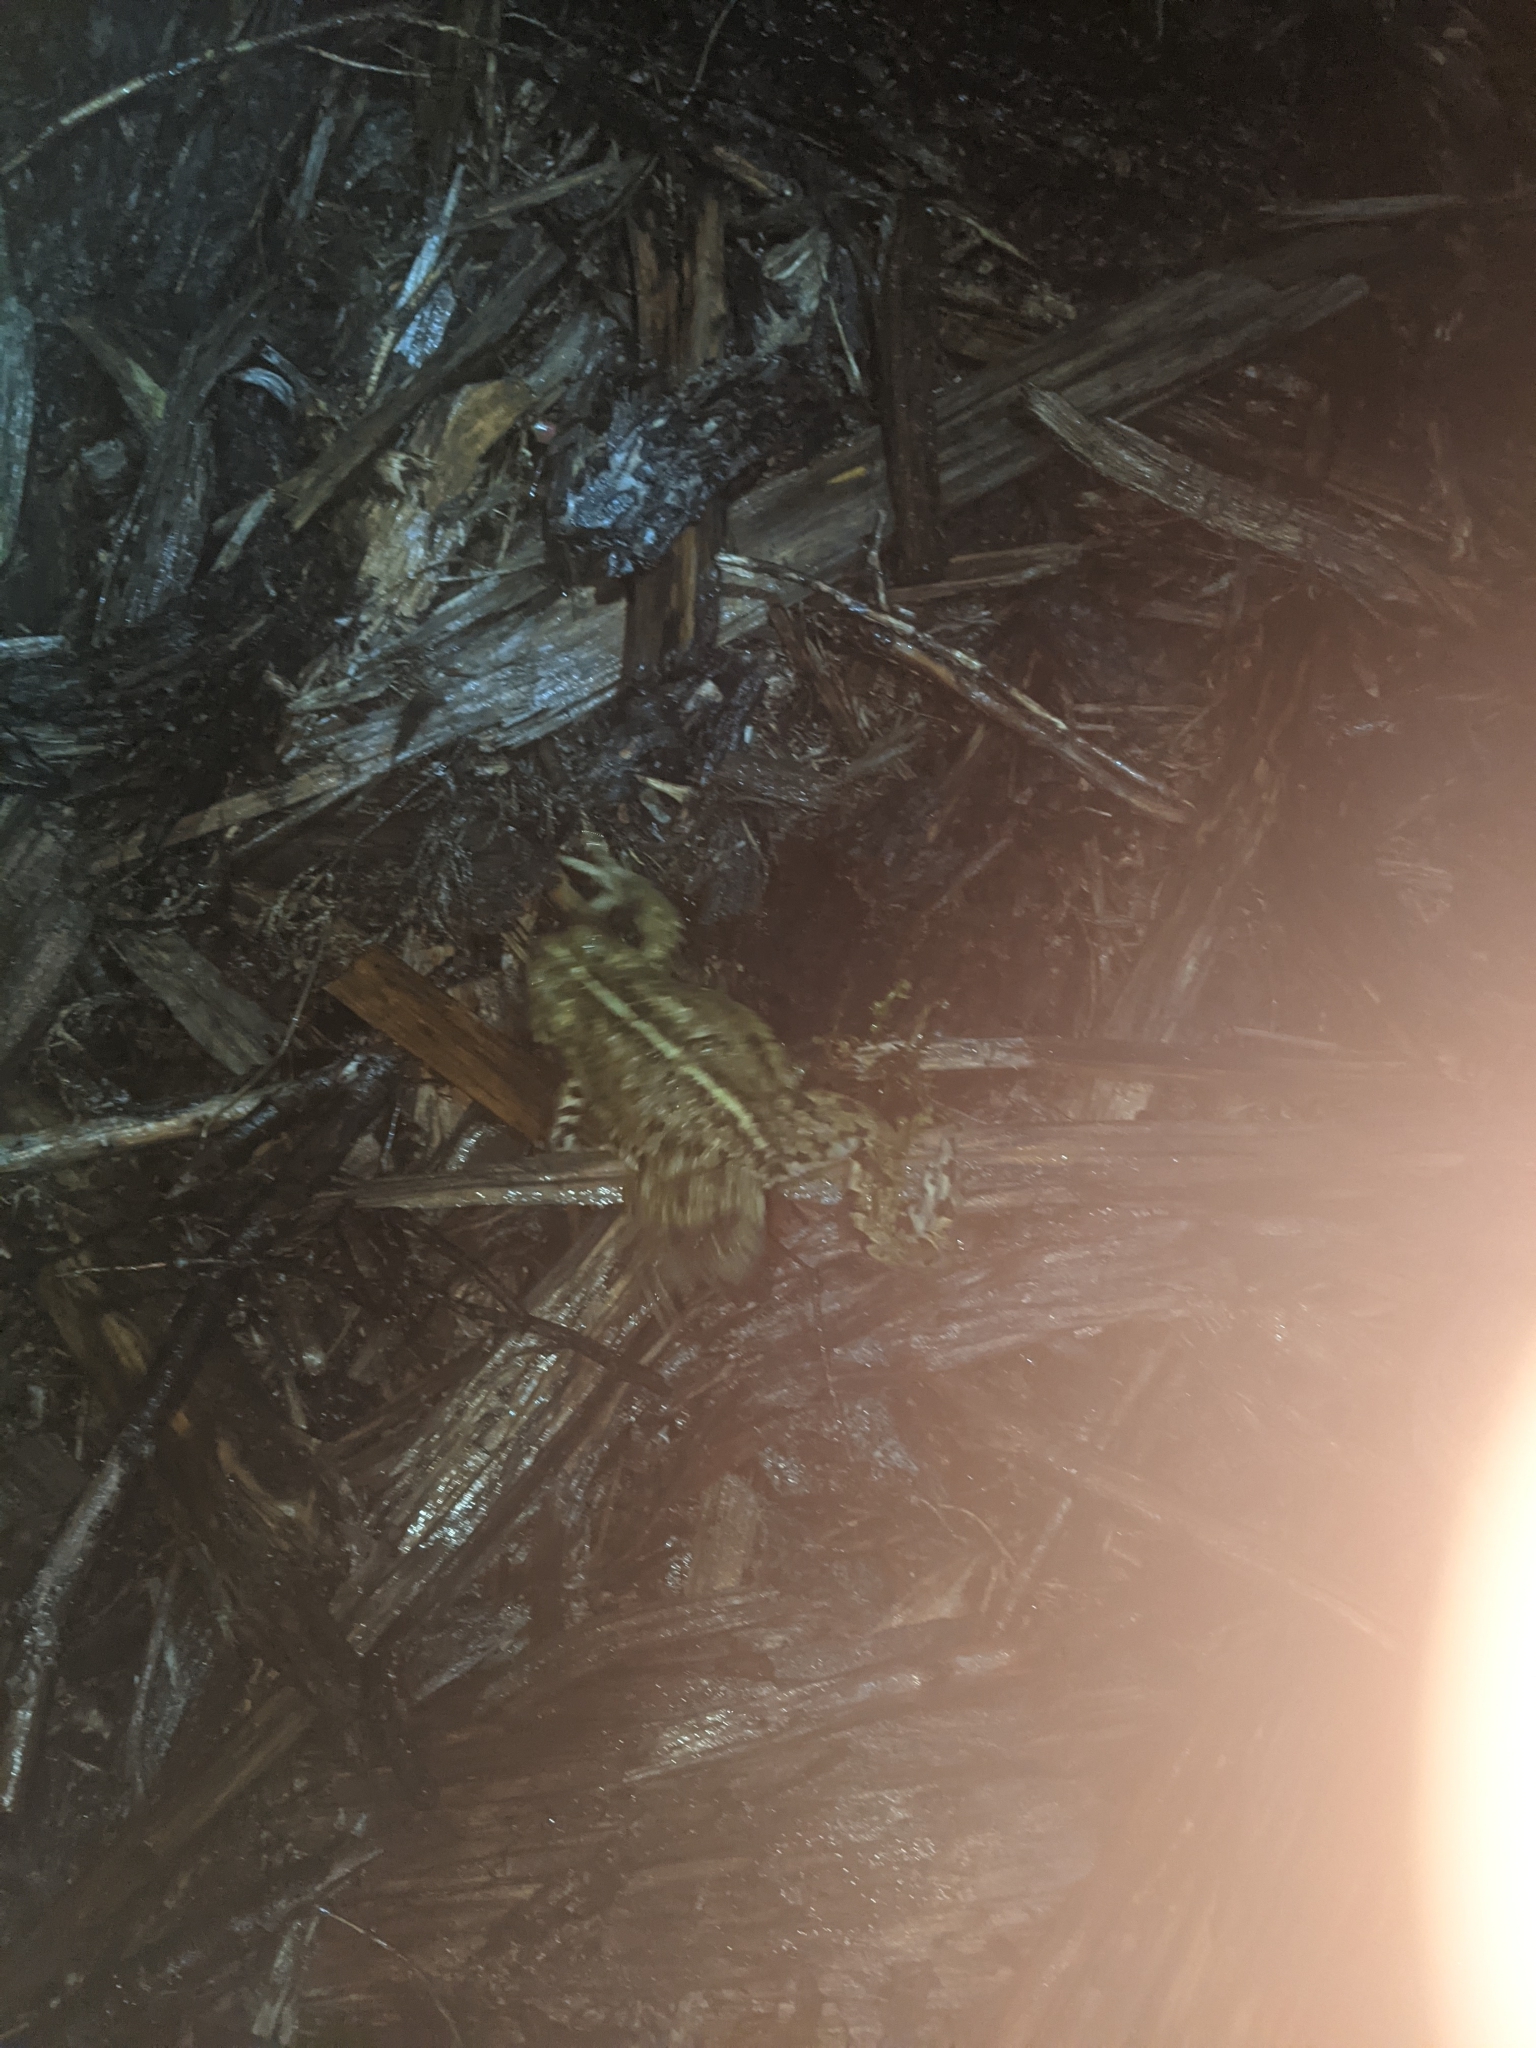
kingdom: Animalia
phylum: Chordata
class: Amphibia
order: Anura
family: Bufonidae
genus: Anaxyrus
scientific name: Anaxyrus boreas
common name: Western toad
